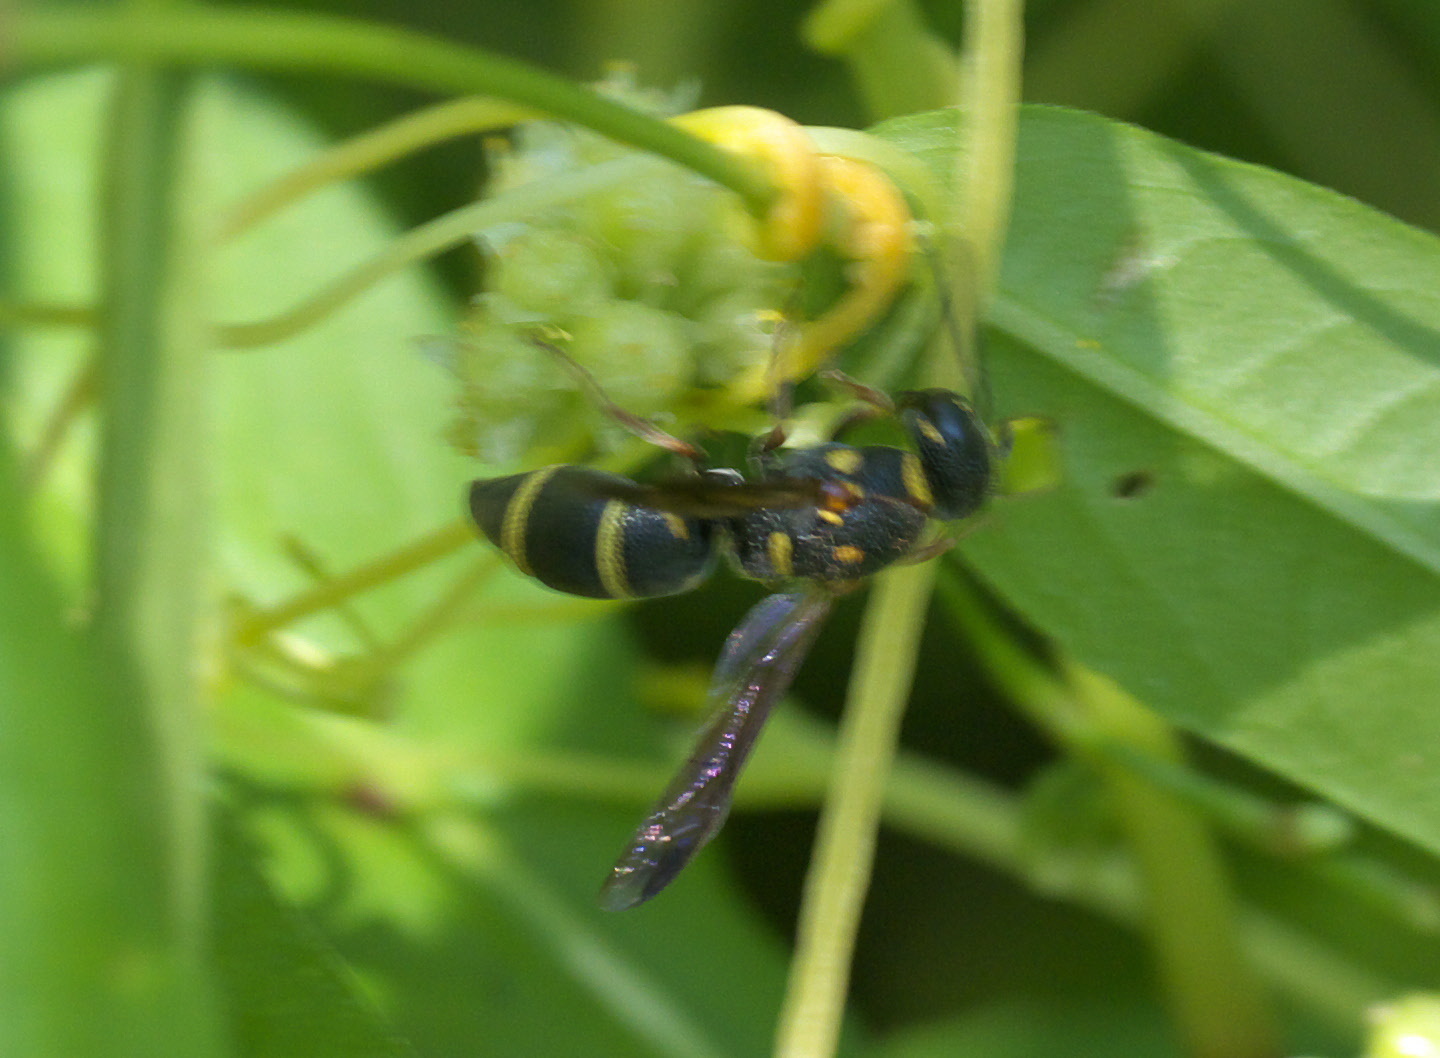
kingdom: Animalia
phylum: Arthropoda
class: Insecta
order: Hymenoptera
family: Eumenidae
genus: Parancistrocerus
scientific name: Parancistrocerus fulvipes
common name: Potter wasp
